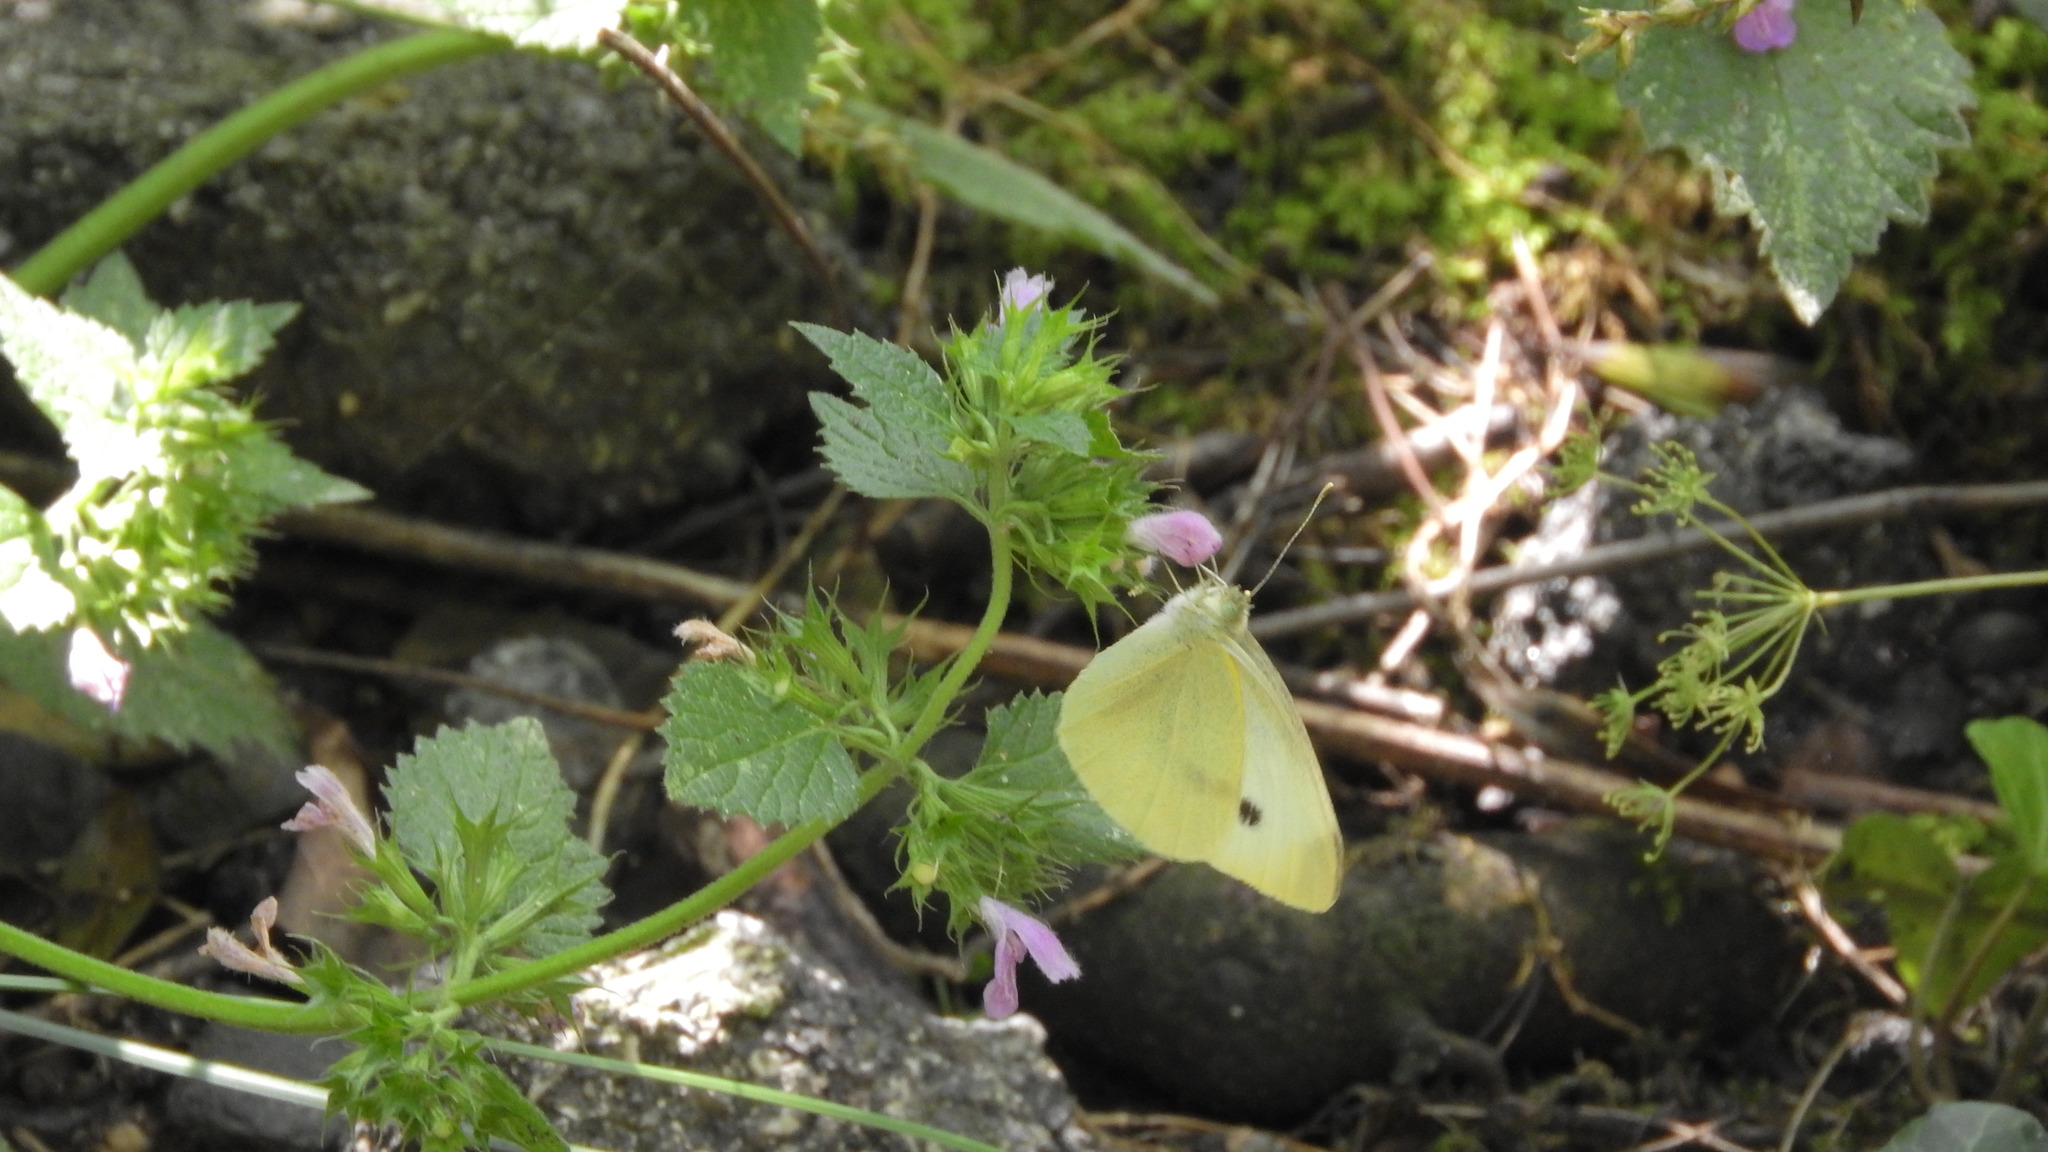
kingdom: Animalia
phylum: Arthropoda
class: Insecta
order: Lepidoptera
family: Pieridae
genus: Pieris
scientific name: Pieris rapae
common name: Small white
